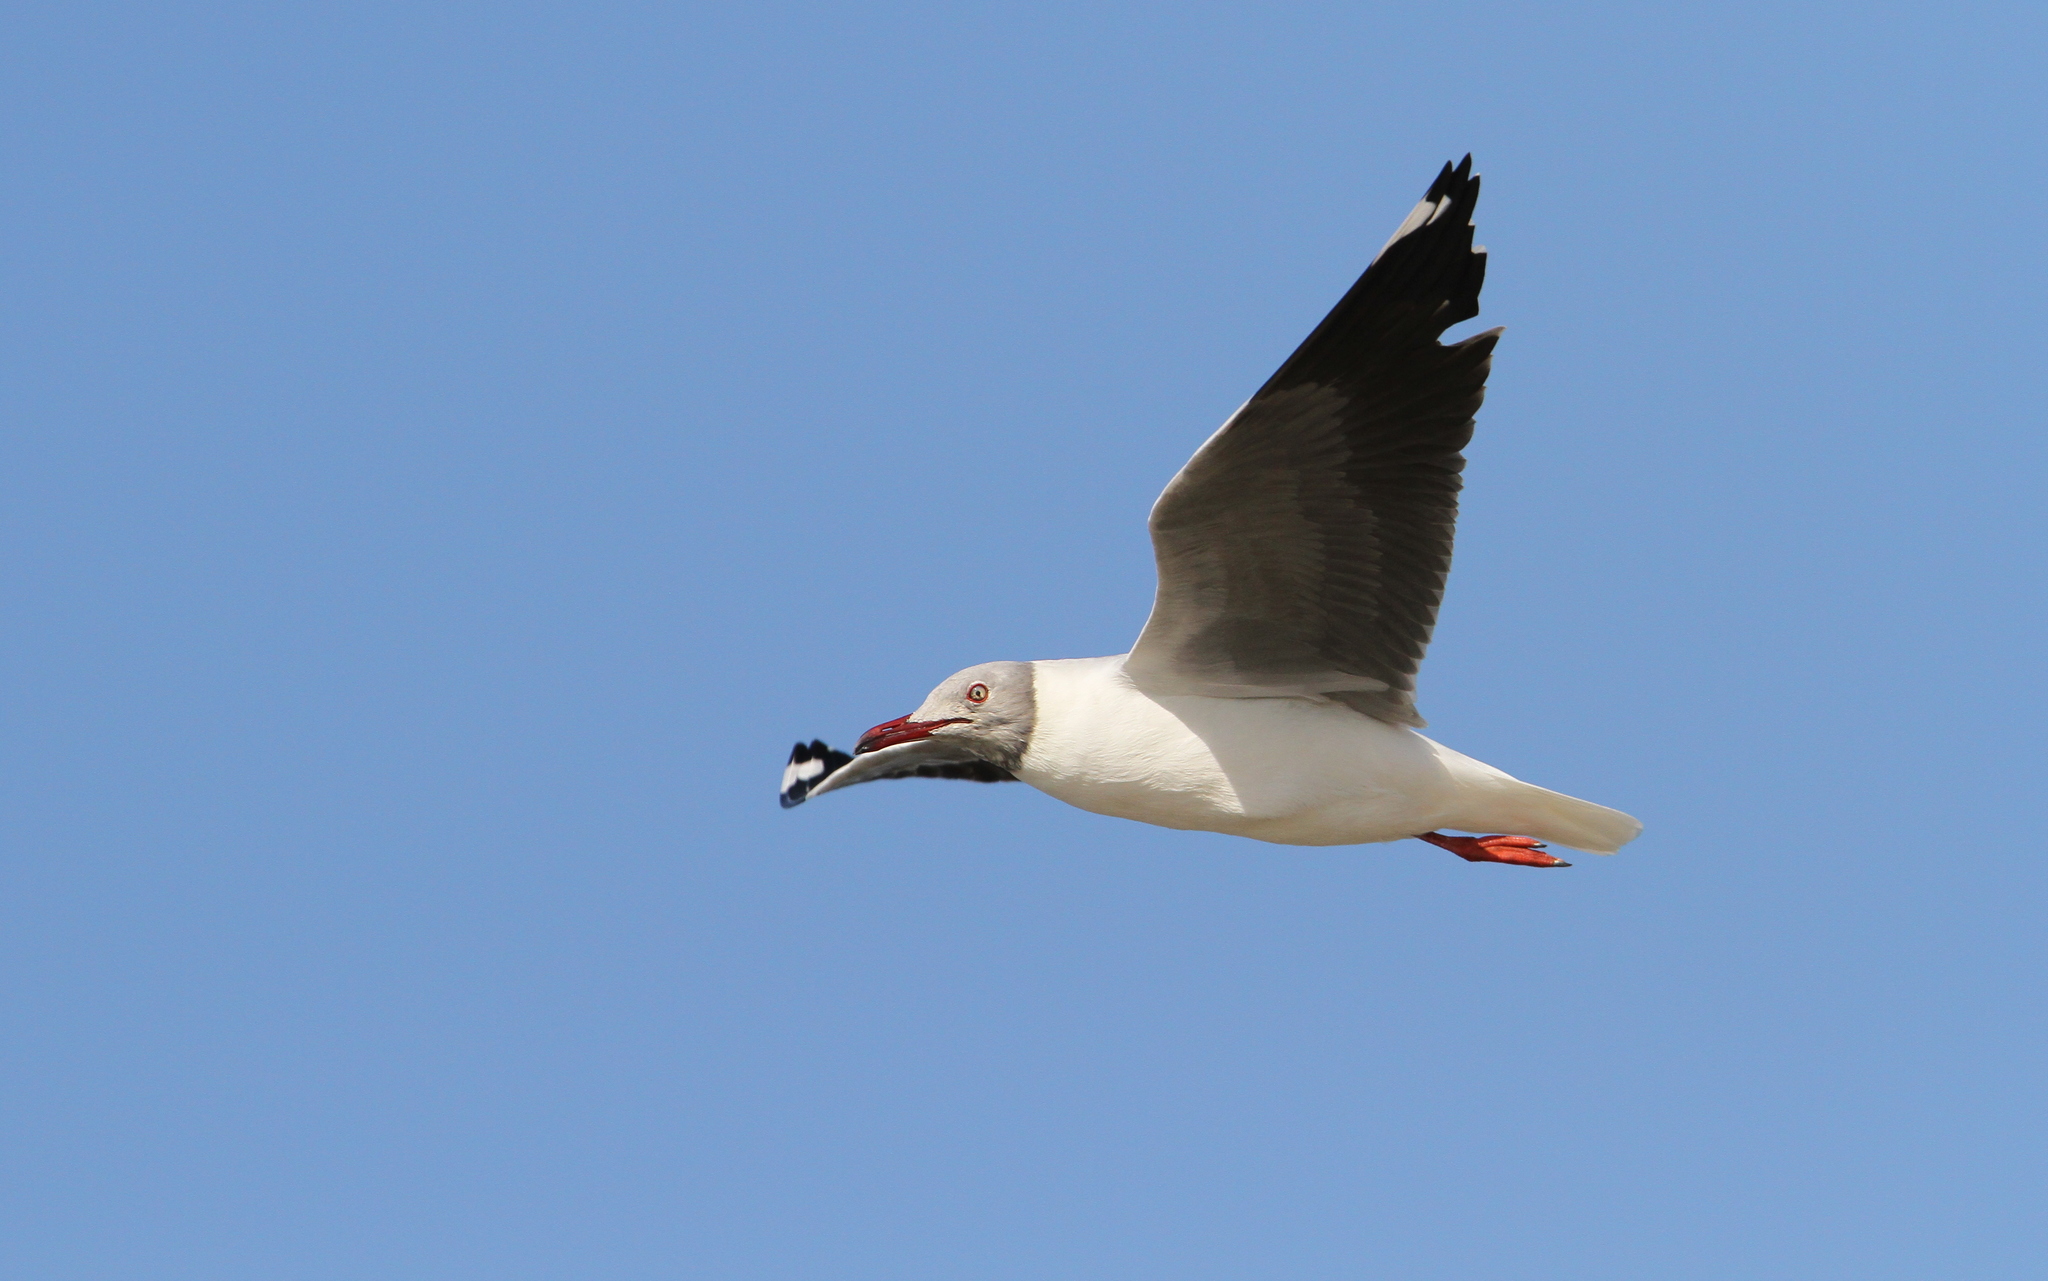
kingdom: Animalia
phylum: Chordata
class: Aves
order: Charadriiformes
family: Laridae
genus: Chroicocephalus
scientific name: Chroicocephalus cirrocephalus
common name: Grey-headed gull
